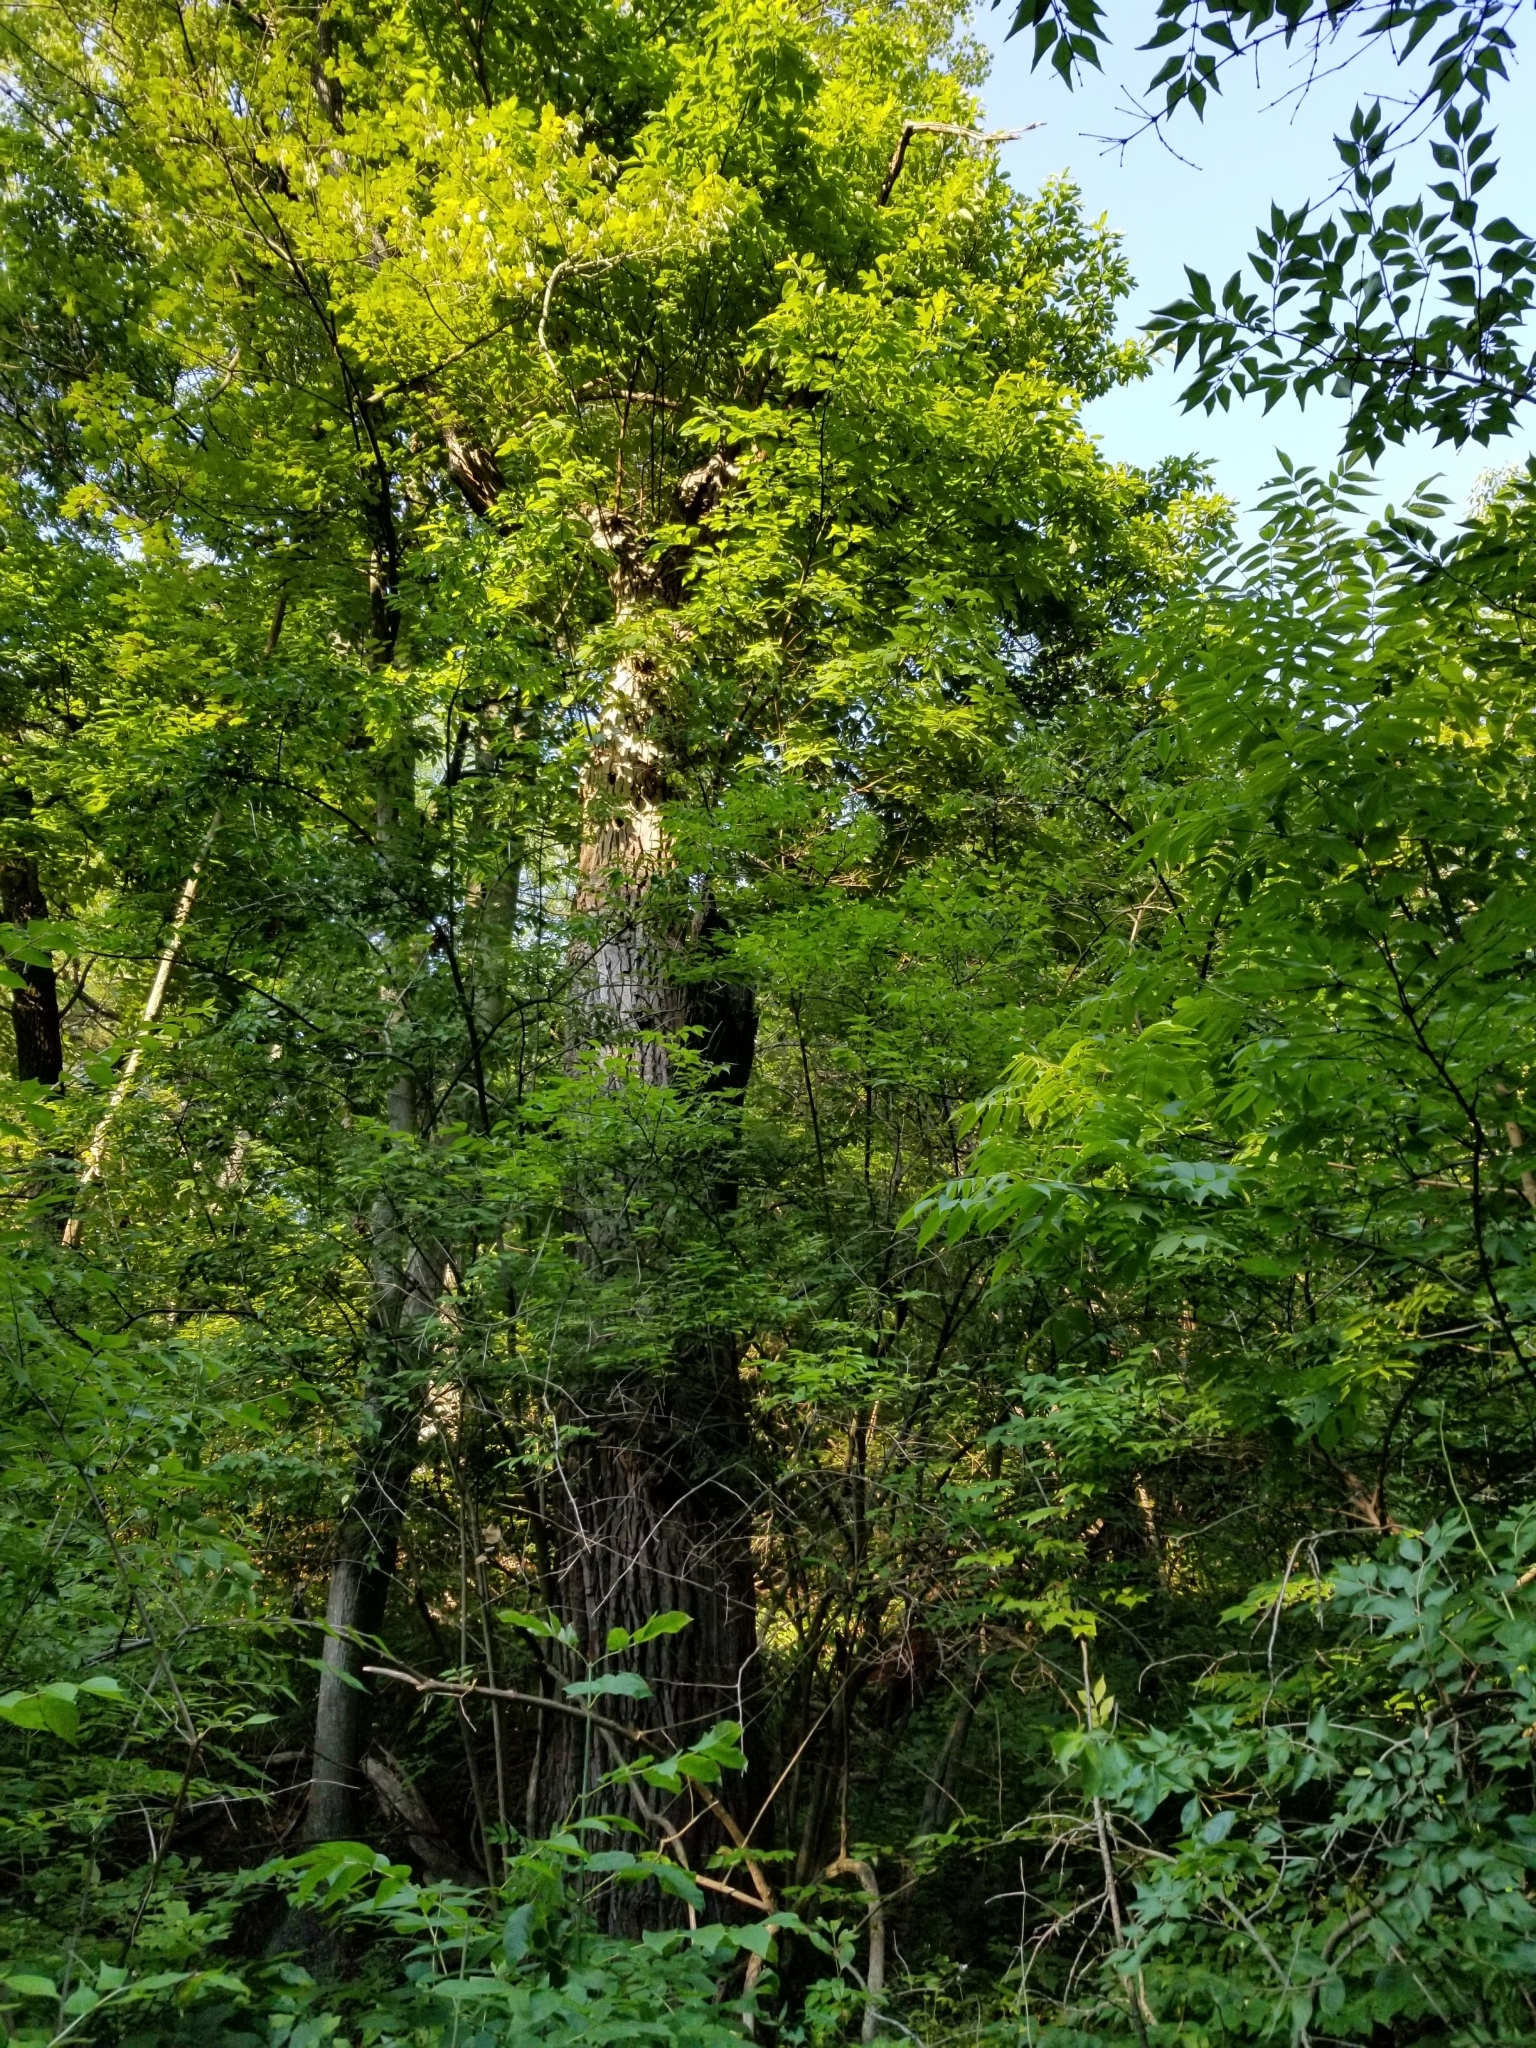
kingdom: Plantae
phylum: Tracheophyta
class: Magnoliopsida
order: Laurales
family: Lauraceae
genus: Sassafras
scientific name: Sassafras albidum
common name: Sassafras
